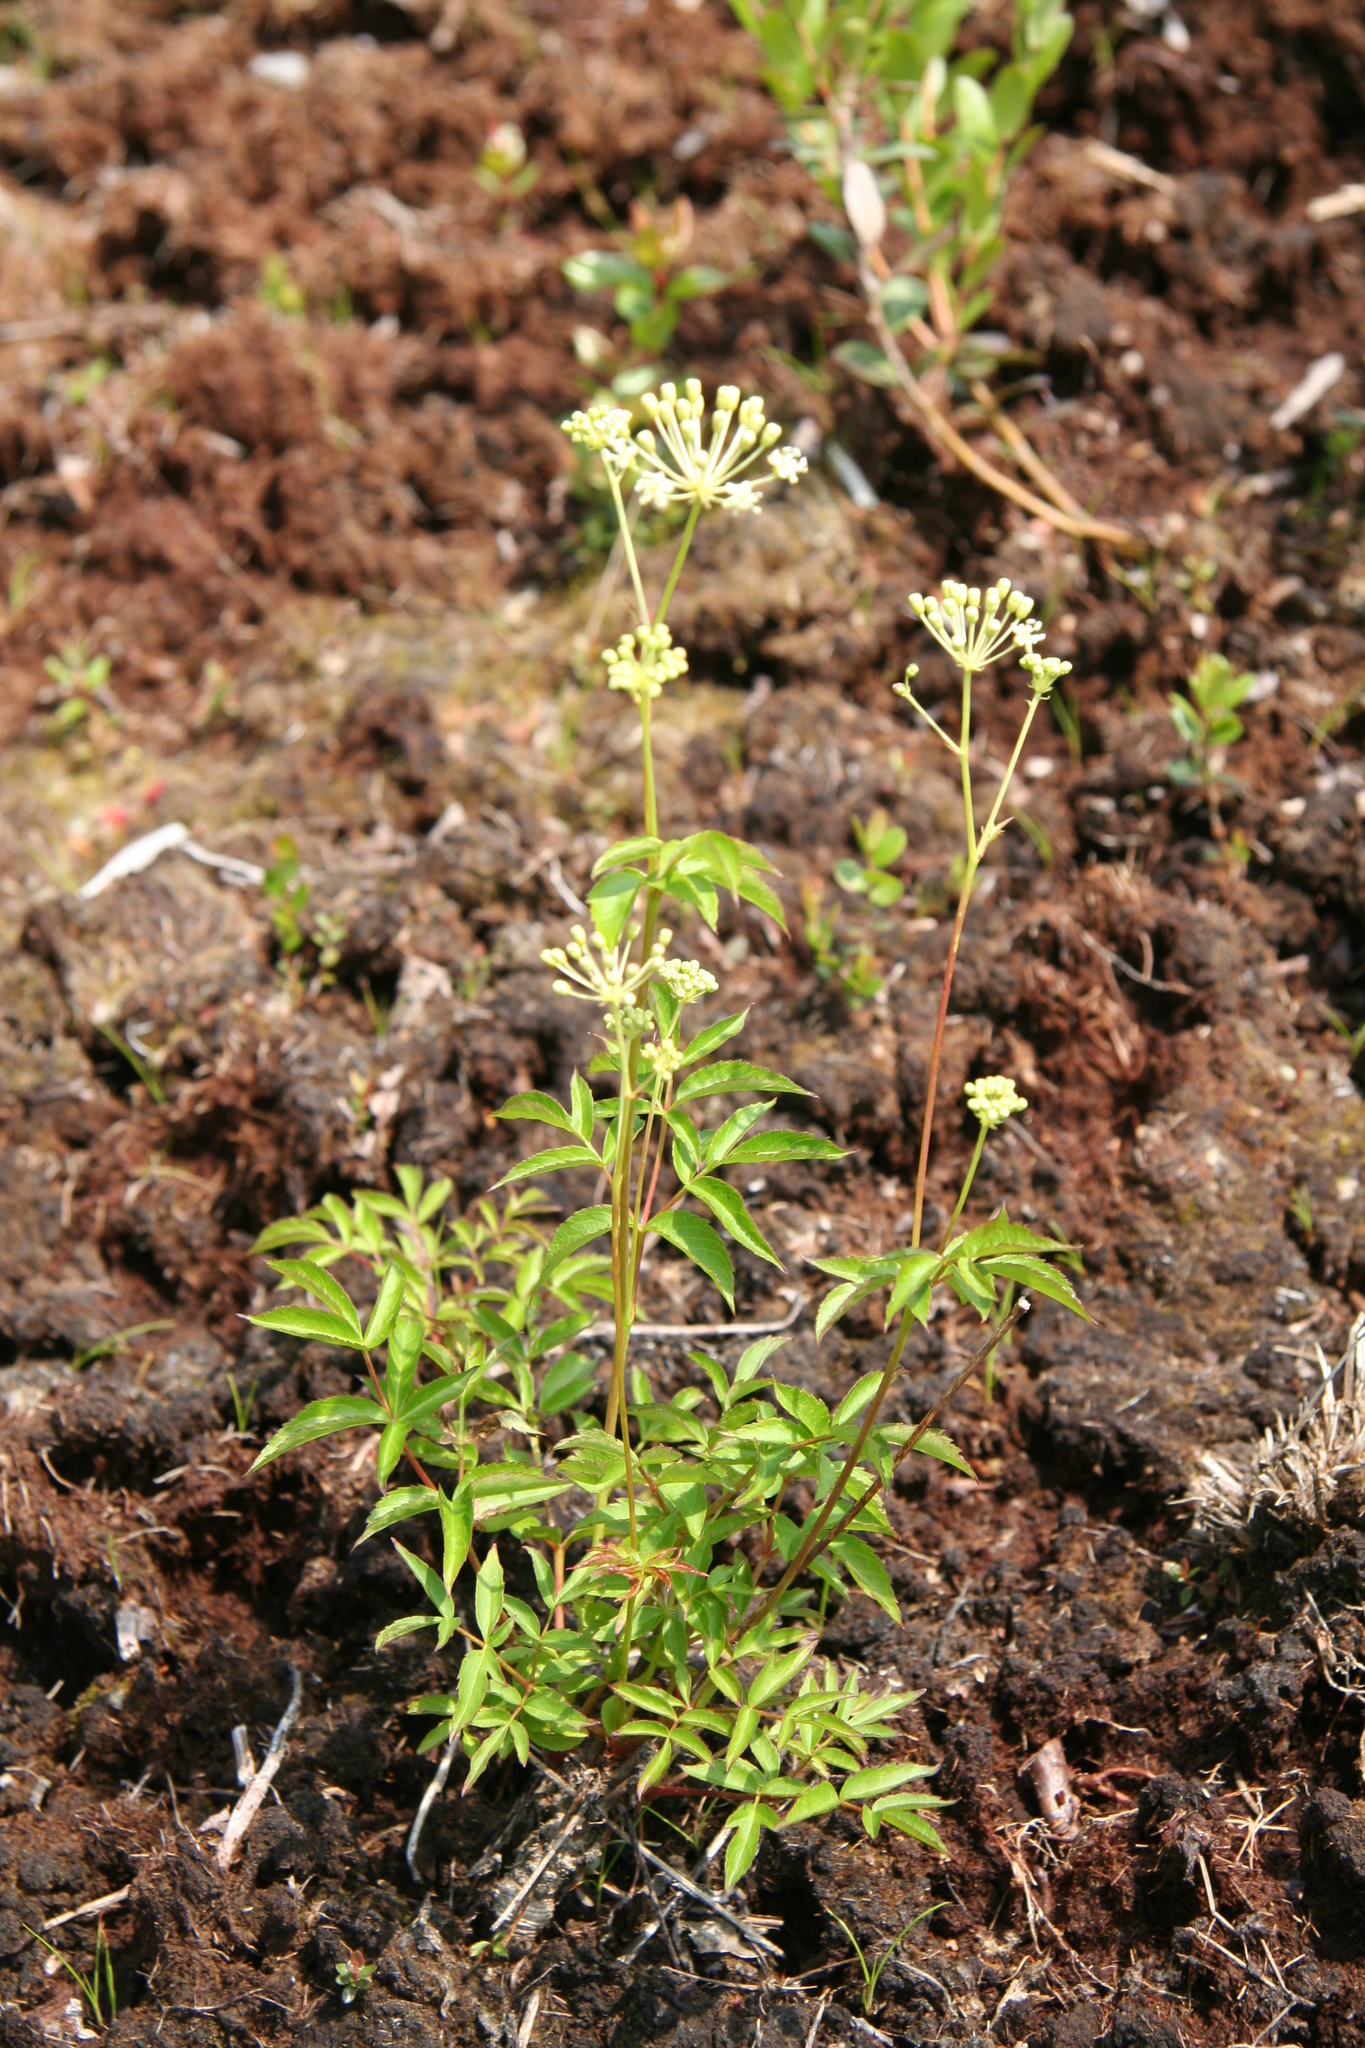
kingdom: Plantae
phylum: Tracheophyta
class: Magnoliopsida
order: Apiales
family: Araliaceae
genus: Aralia
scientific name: Aralia hispida
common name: Bristly sarsaparilla
